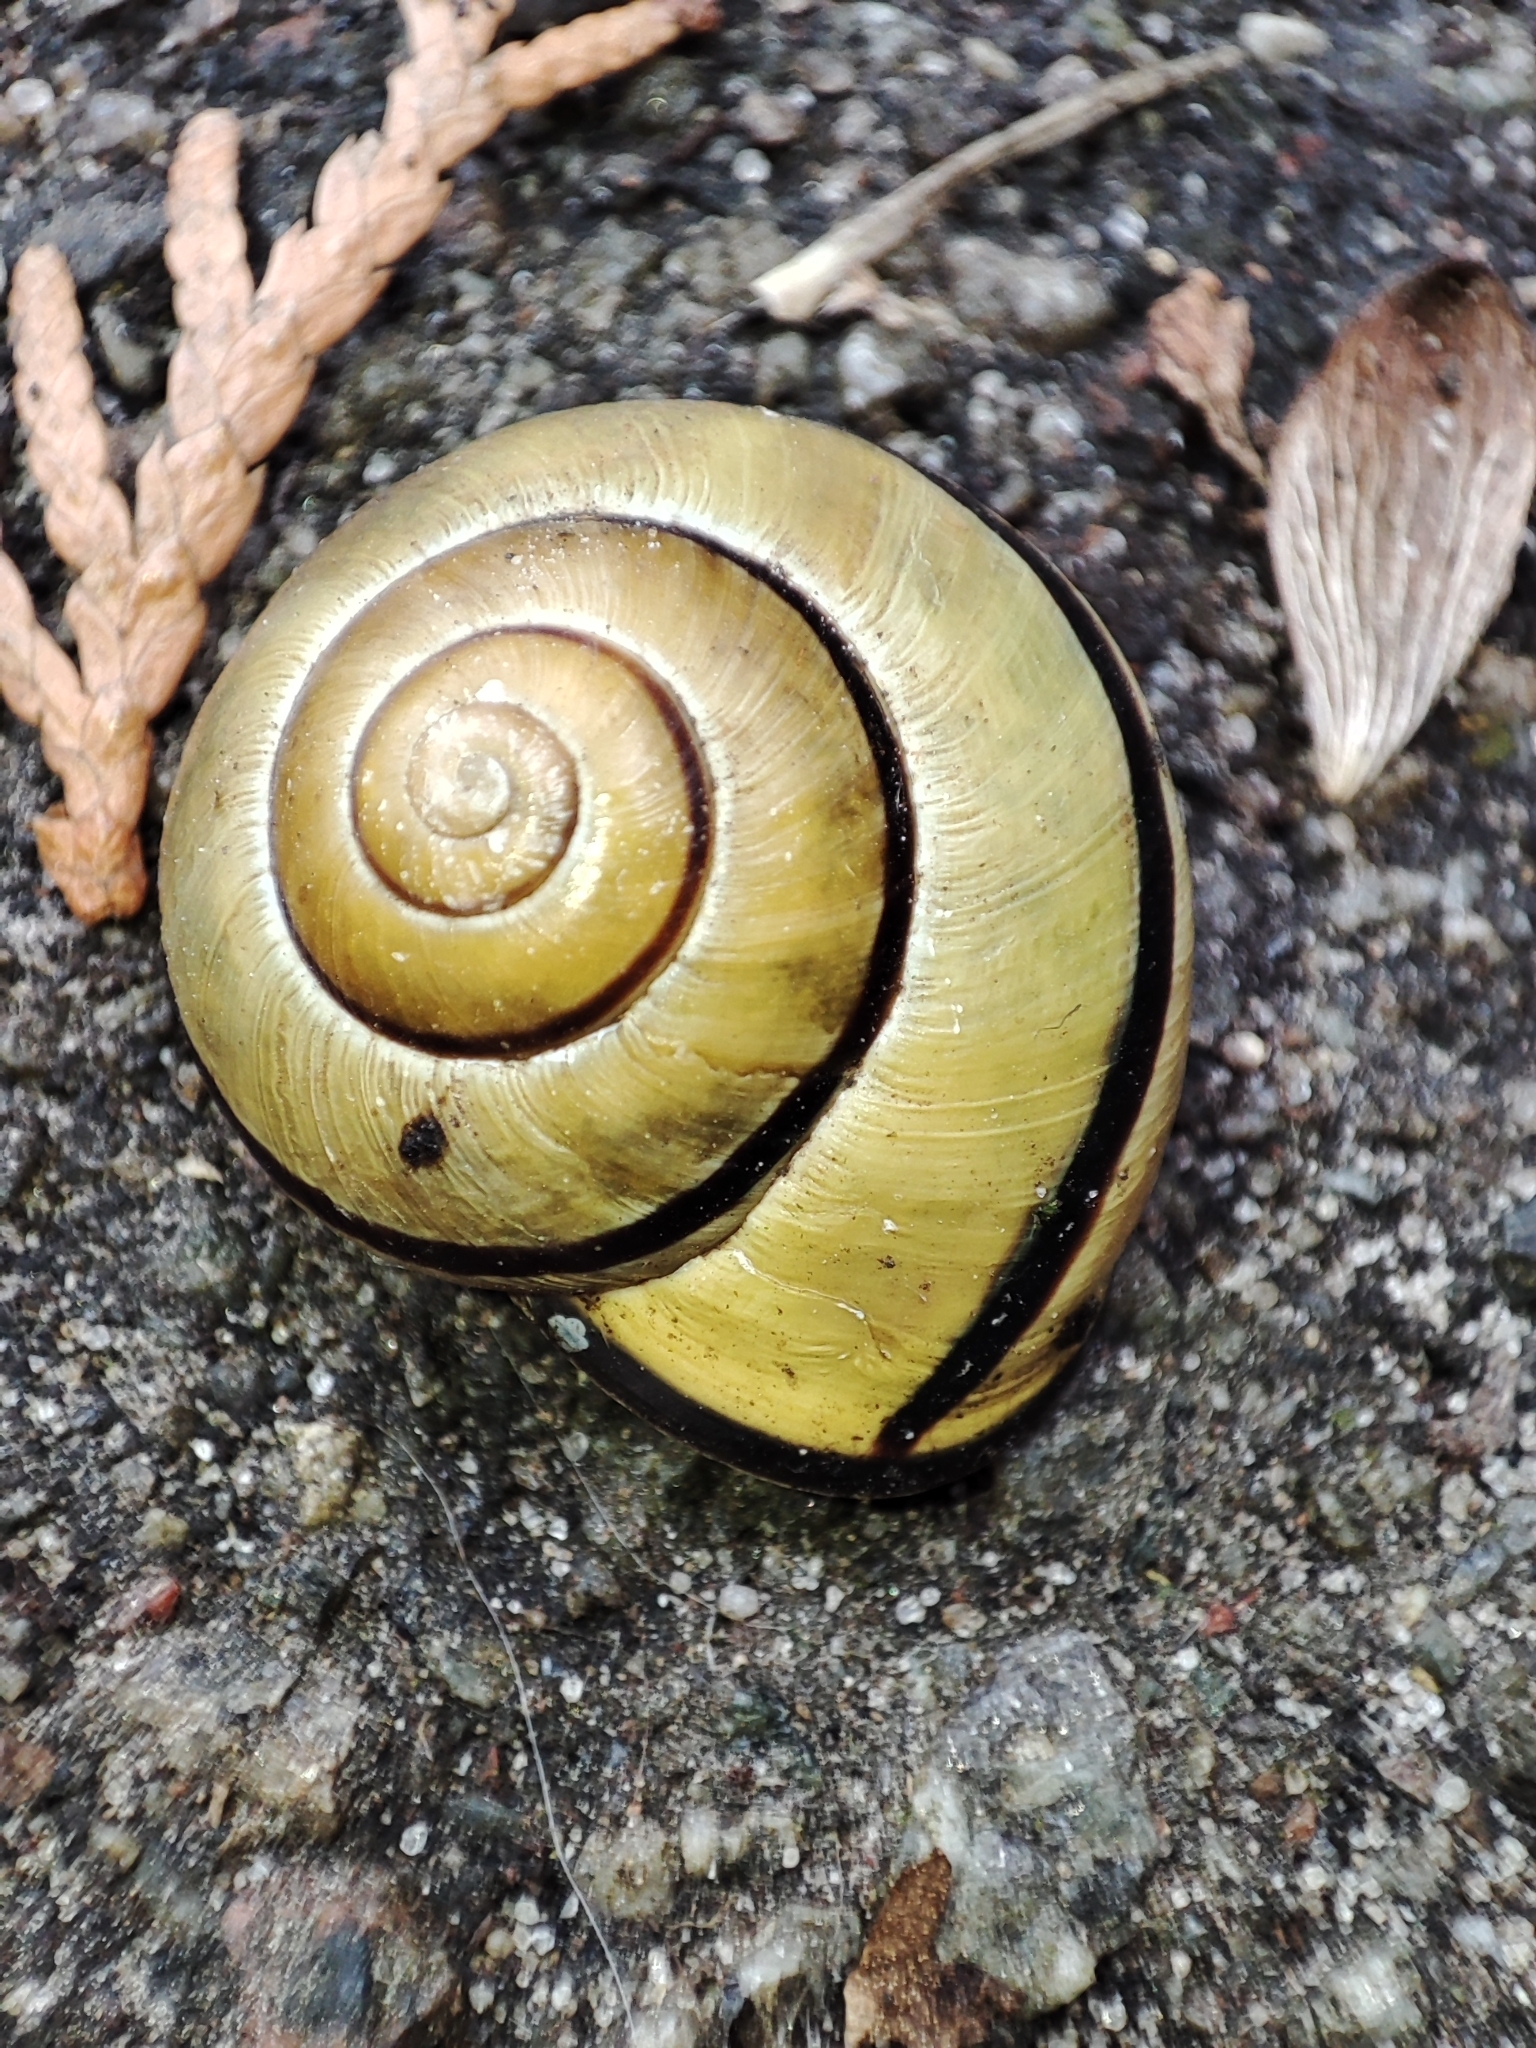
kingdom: Animalia
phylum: Mollusca
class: Gastropoda
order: Stylommatophora
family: Helicidae
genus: Cepaea
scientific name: Cepaea nemoralis
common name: Grovesnail
